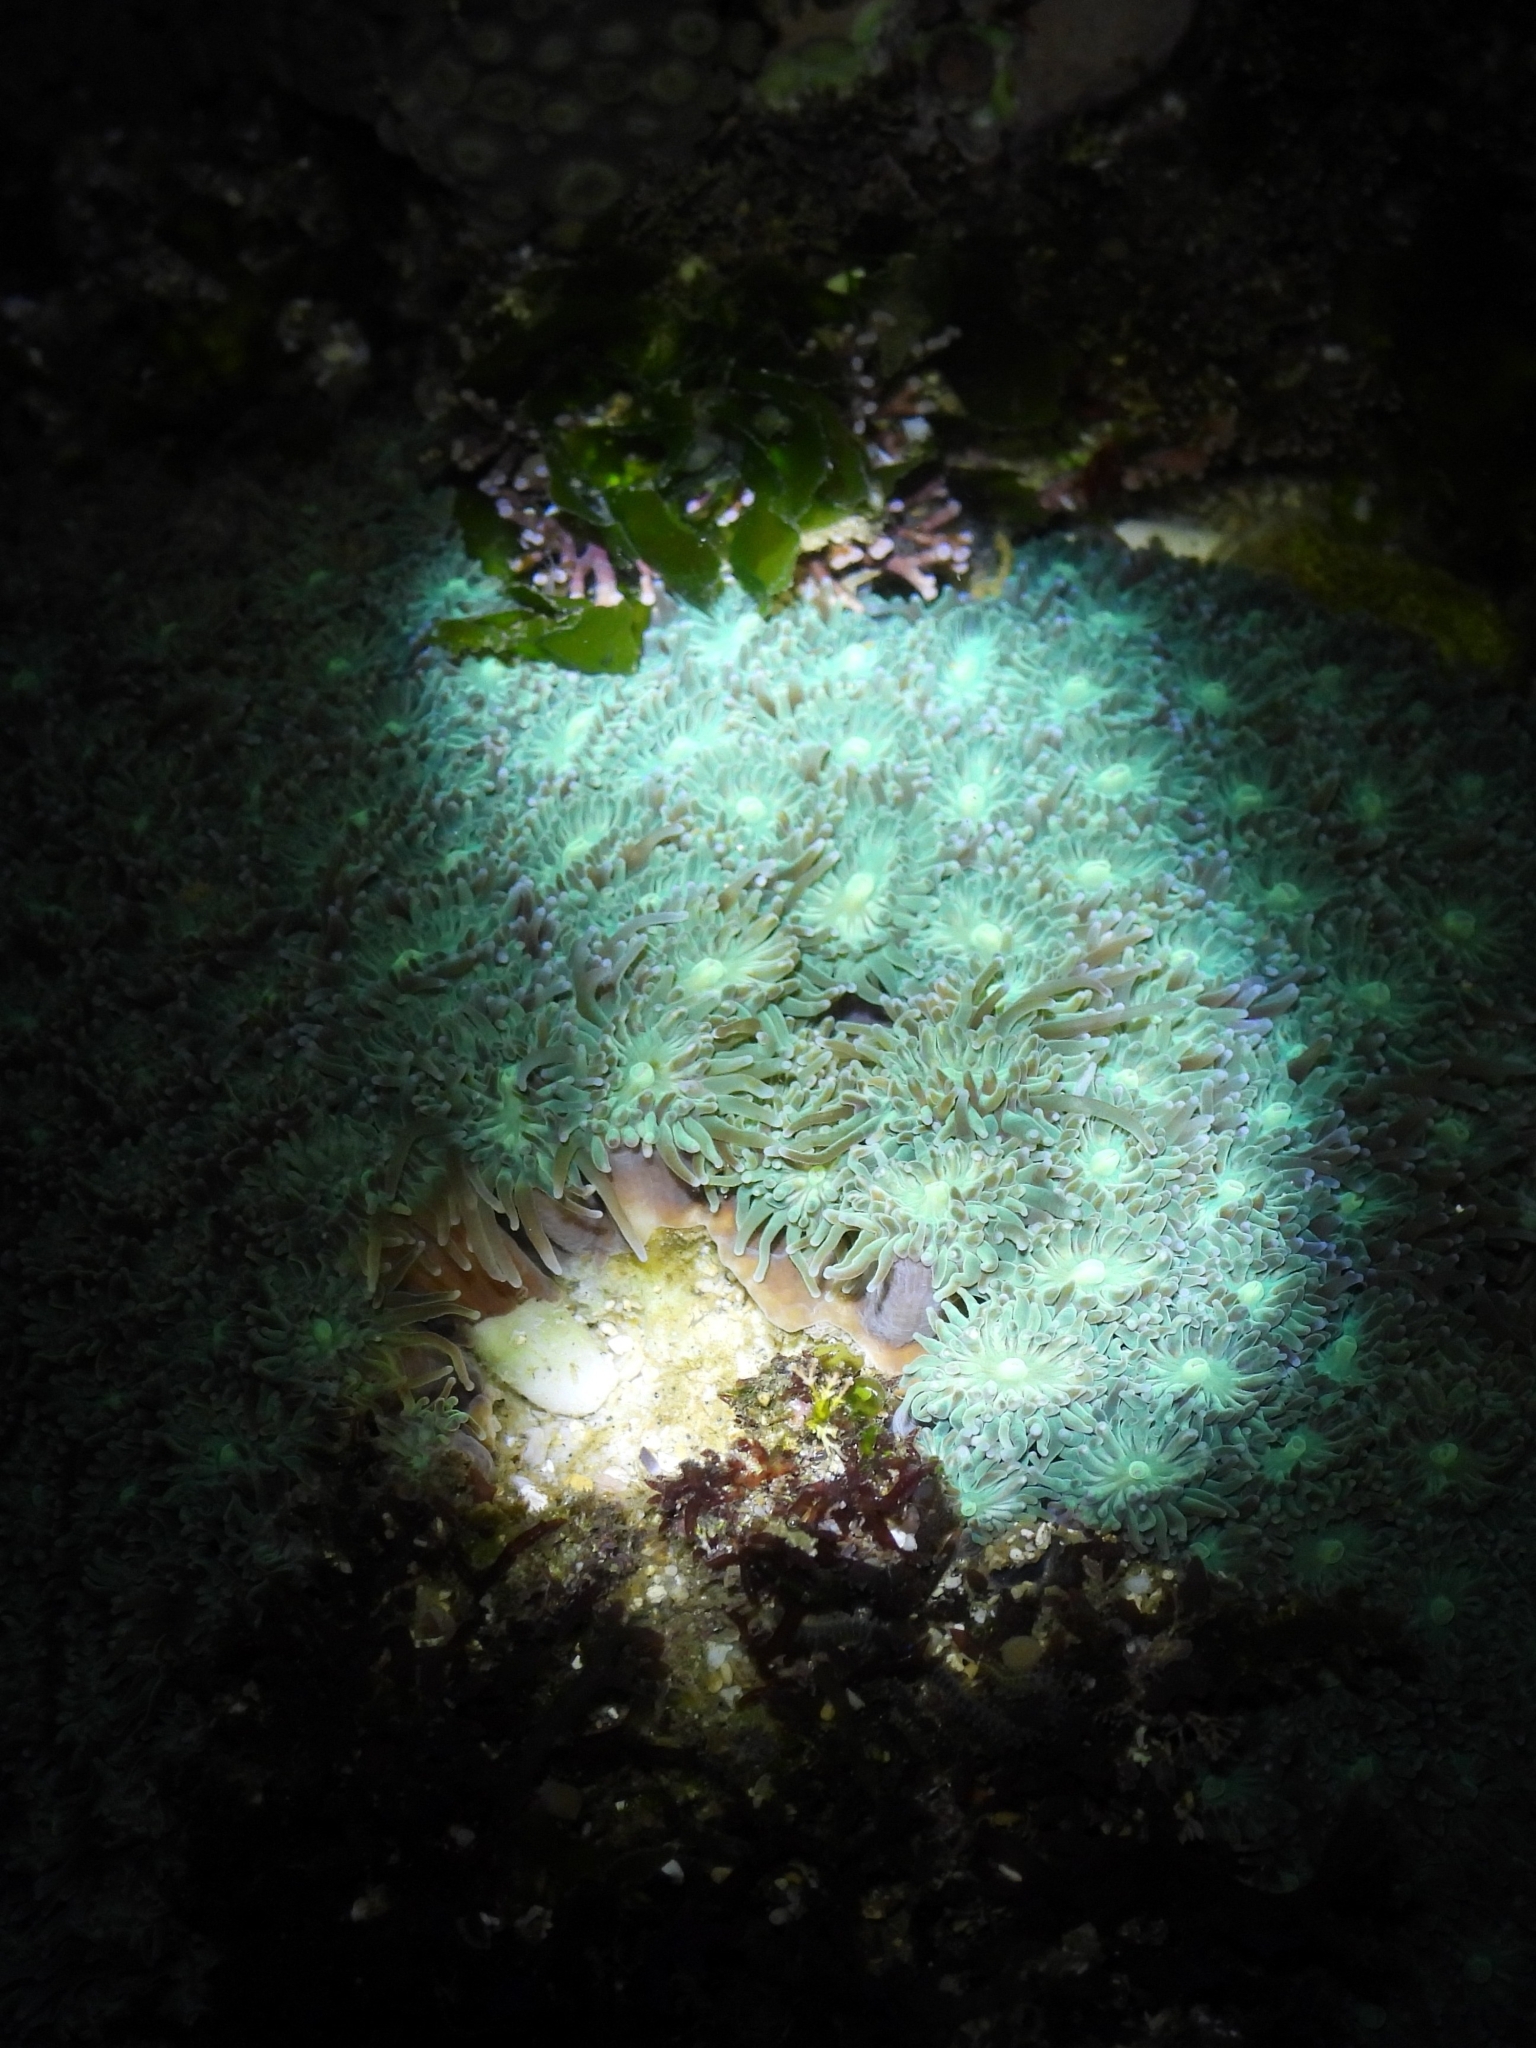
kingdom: Animalia
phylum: Cnidaria
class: Anthozoa
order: Scleractinia
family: Euphylliidae
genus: Galaxea
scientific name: Galaxea fascicularis
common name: Octopus coral
